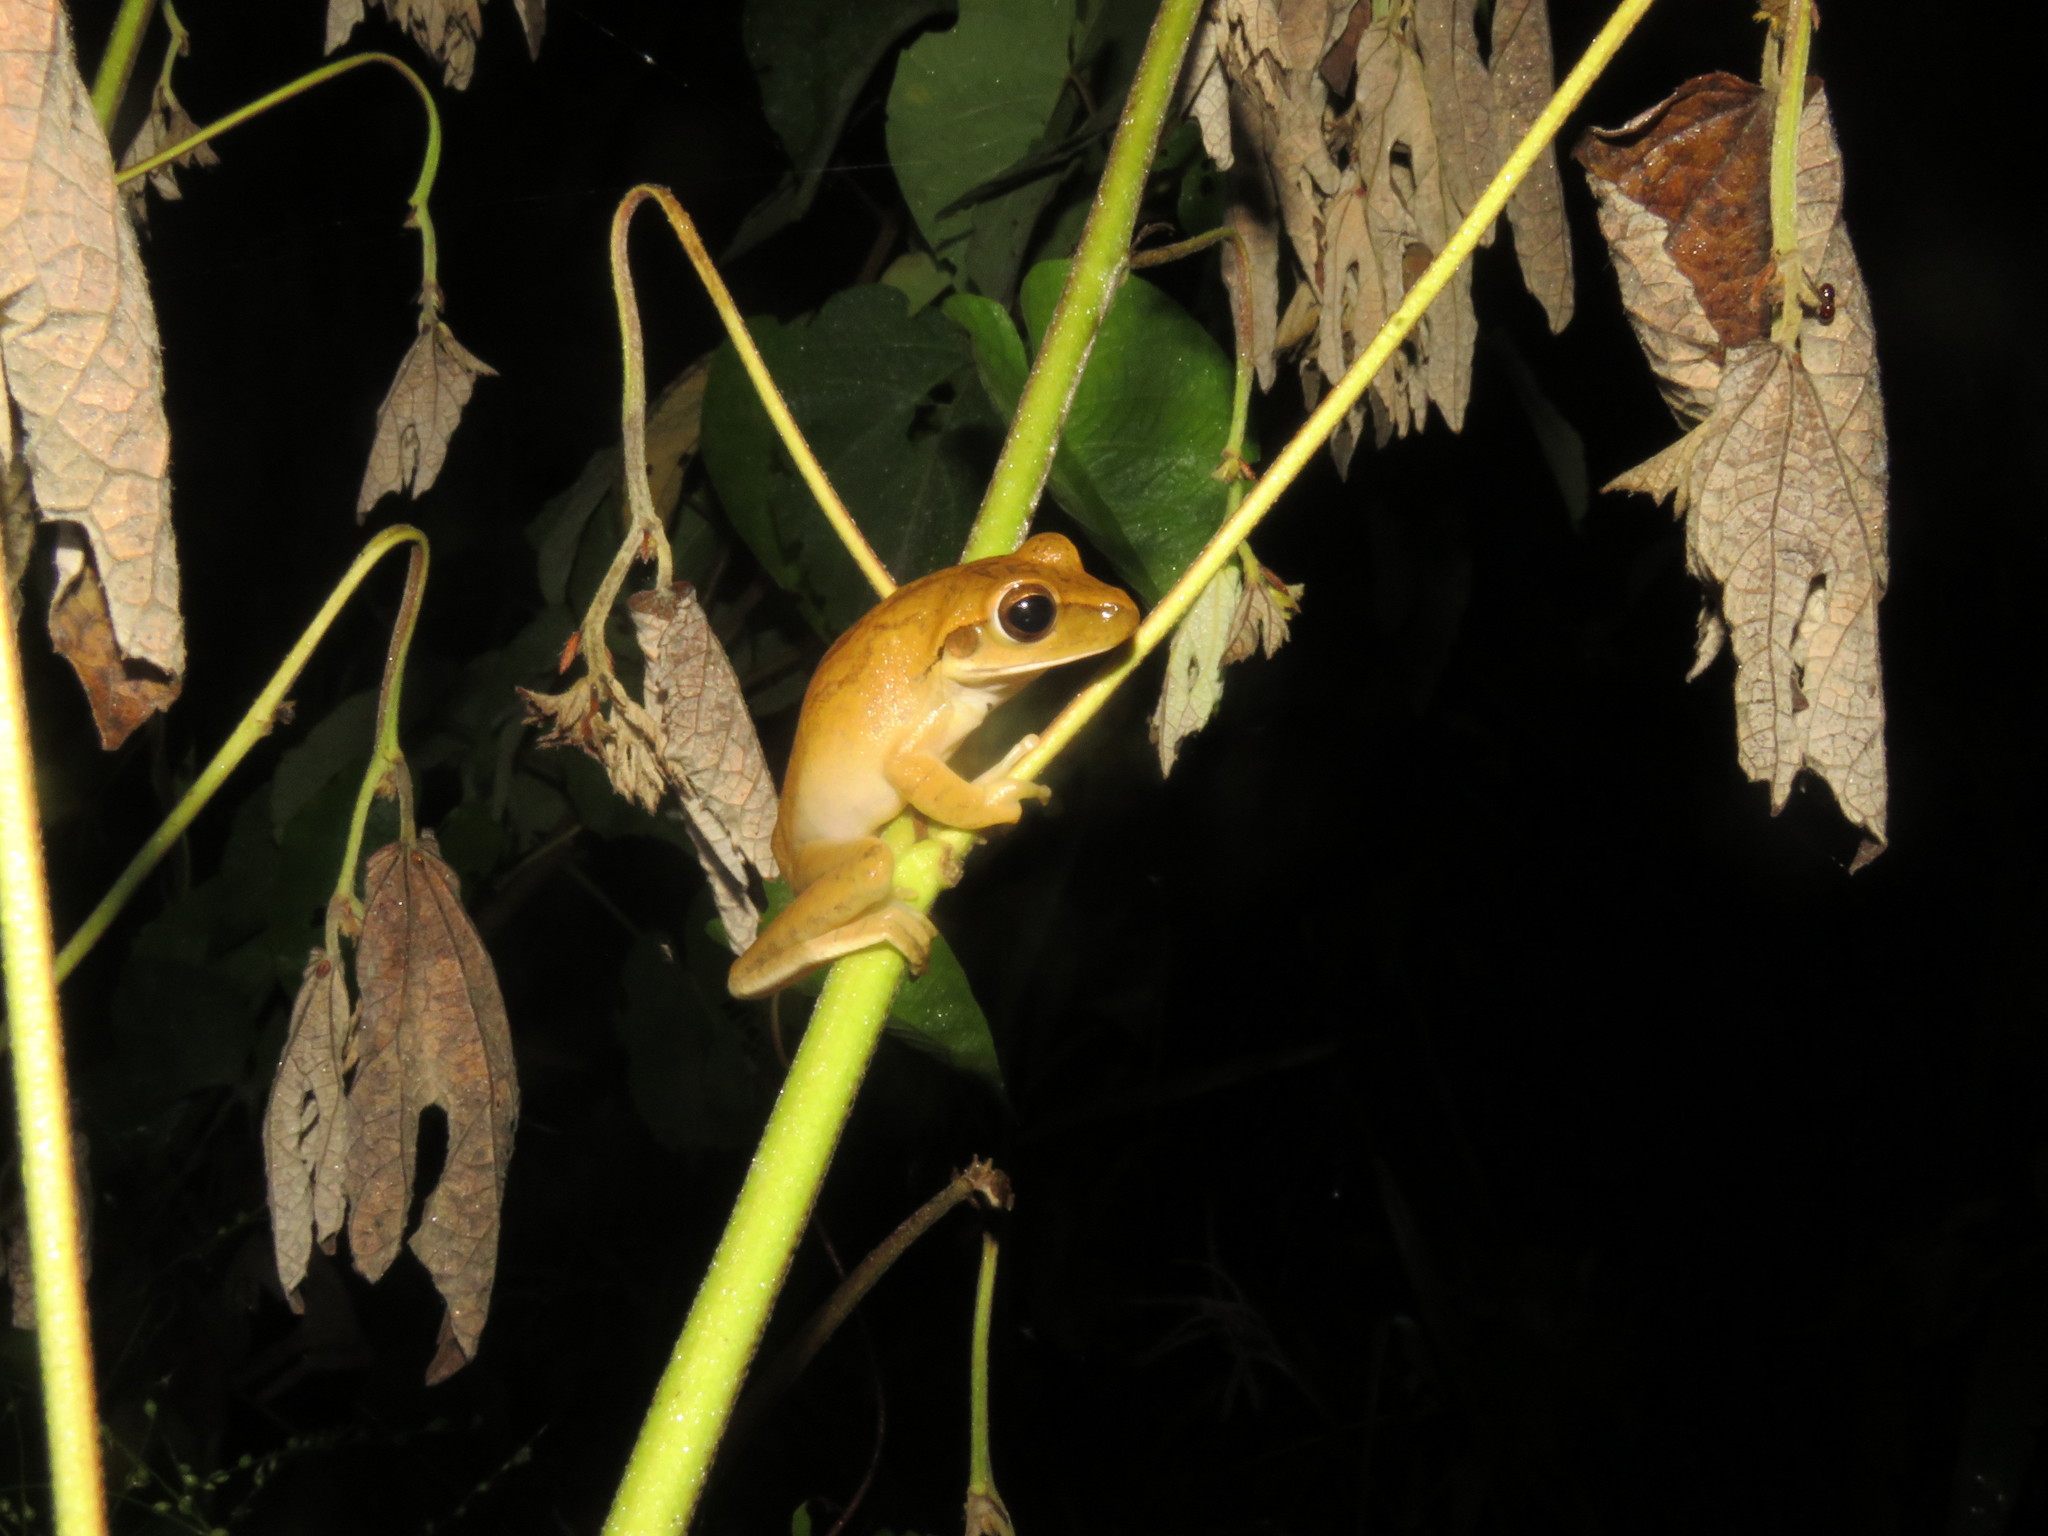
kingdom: Animalia
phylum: Chordata
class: Amphibia
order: Anura
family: Hylidae
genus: Boana
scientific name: Boana steinbachi
